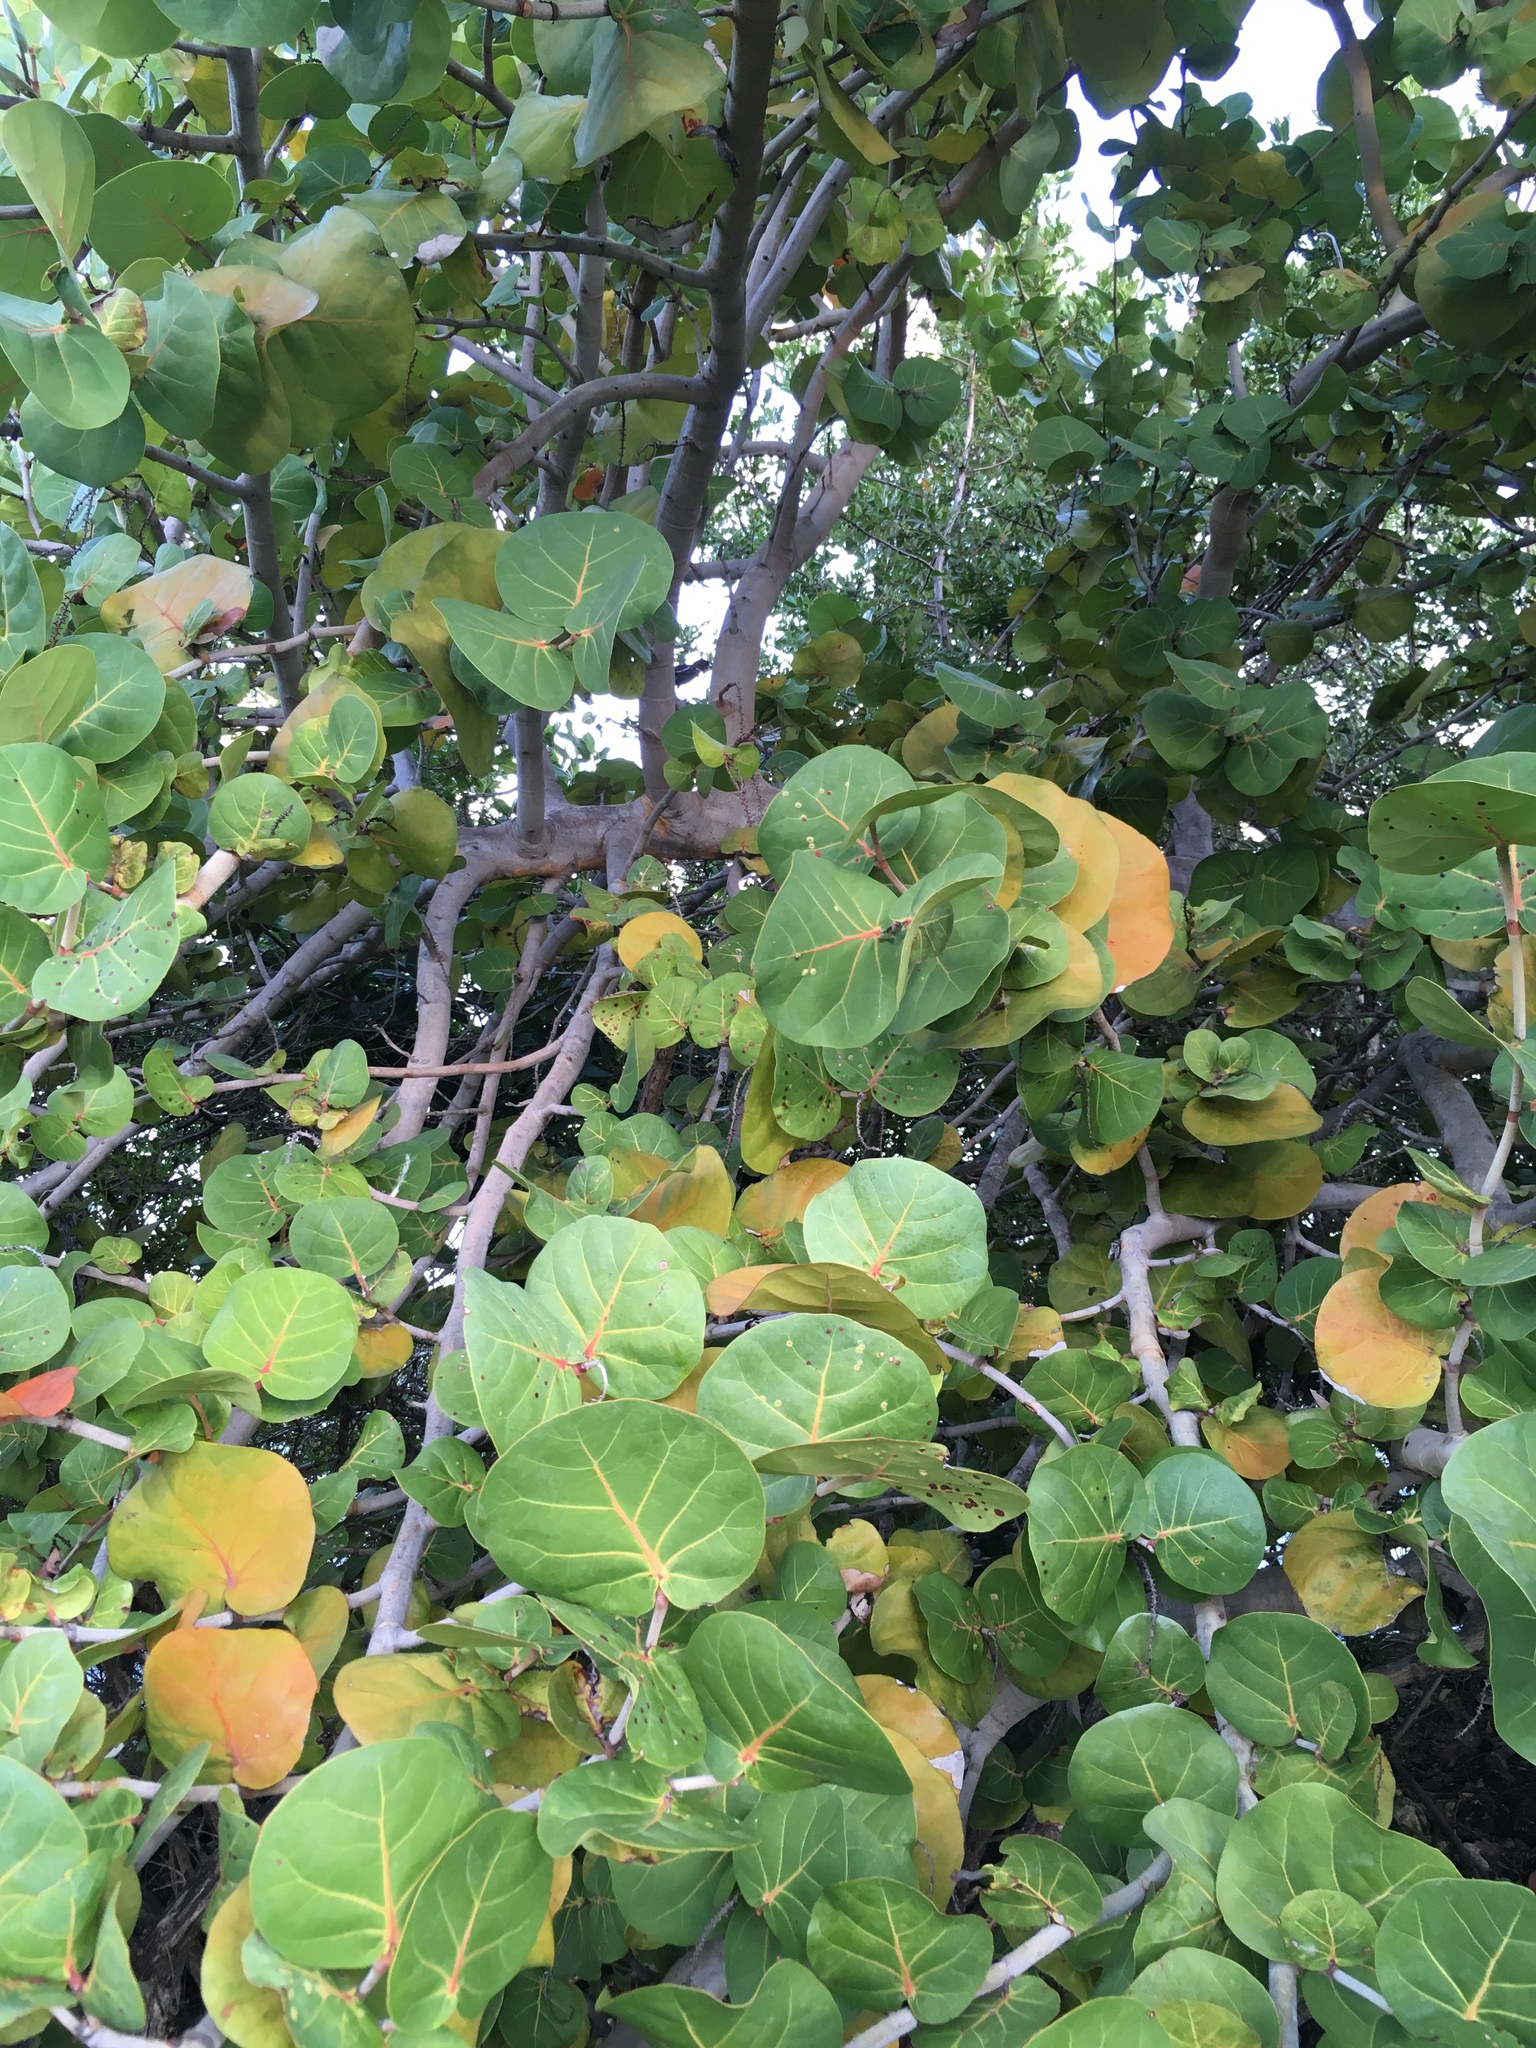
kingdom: Plantae
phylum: Tracheophyta
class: Magnoliopsida
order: Caryophyllales
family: Polygonaceae
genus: Coccoloba
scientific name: Coccoloba uvifera
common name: Seagrape
